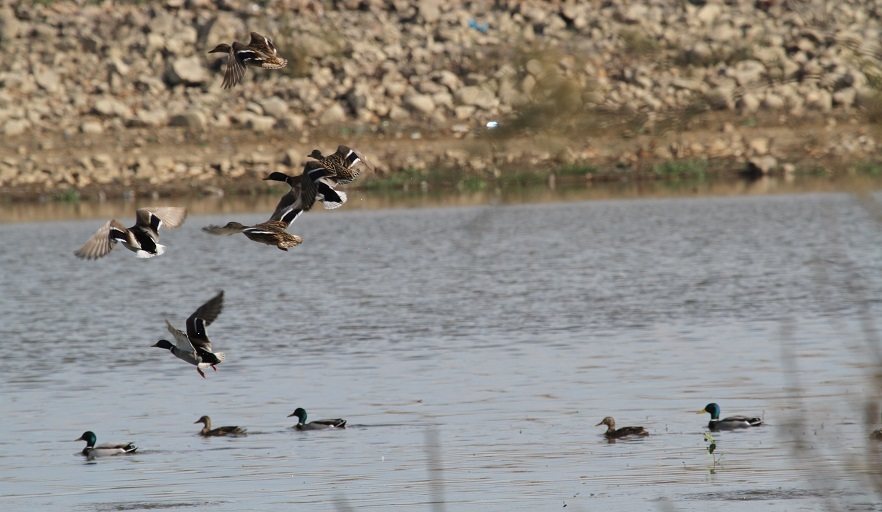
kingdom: Animalia
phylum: Chordata
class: Aves
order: Anseriformes
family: Anatidae
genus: Anas
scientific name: Anas platyrhynchos
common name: Mallard
